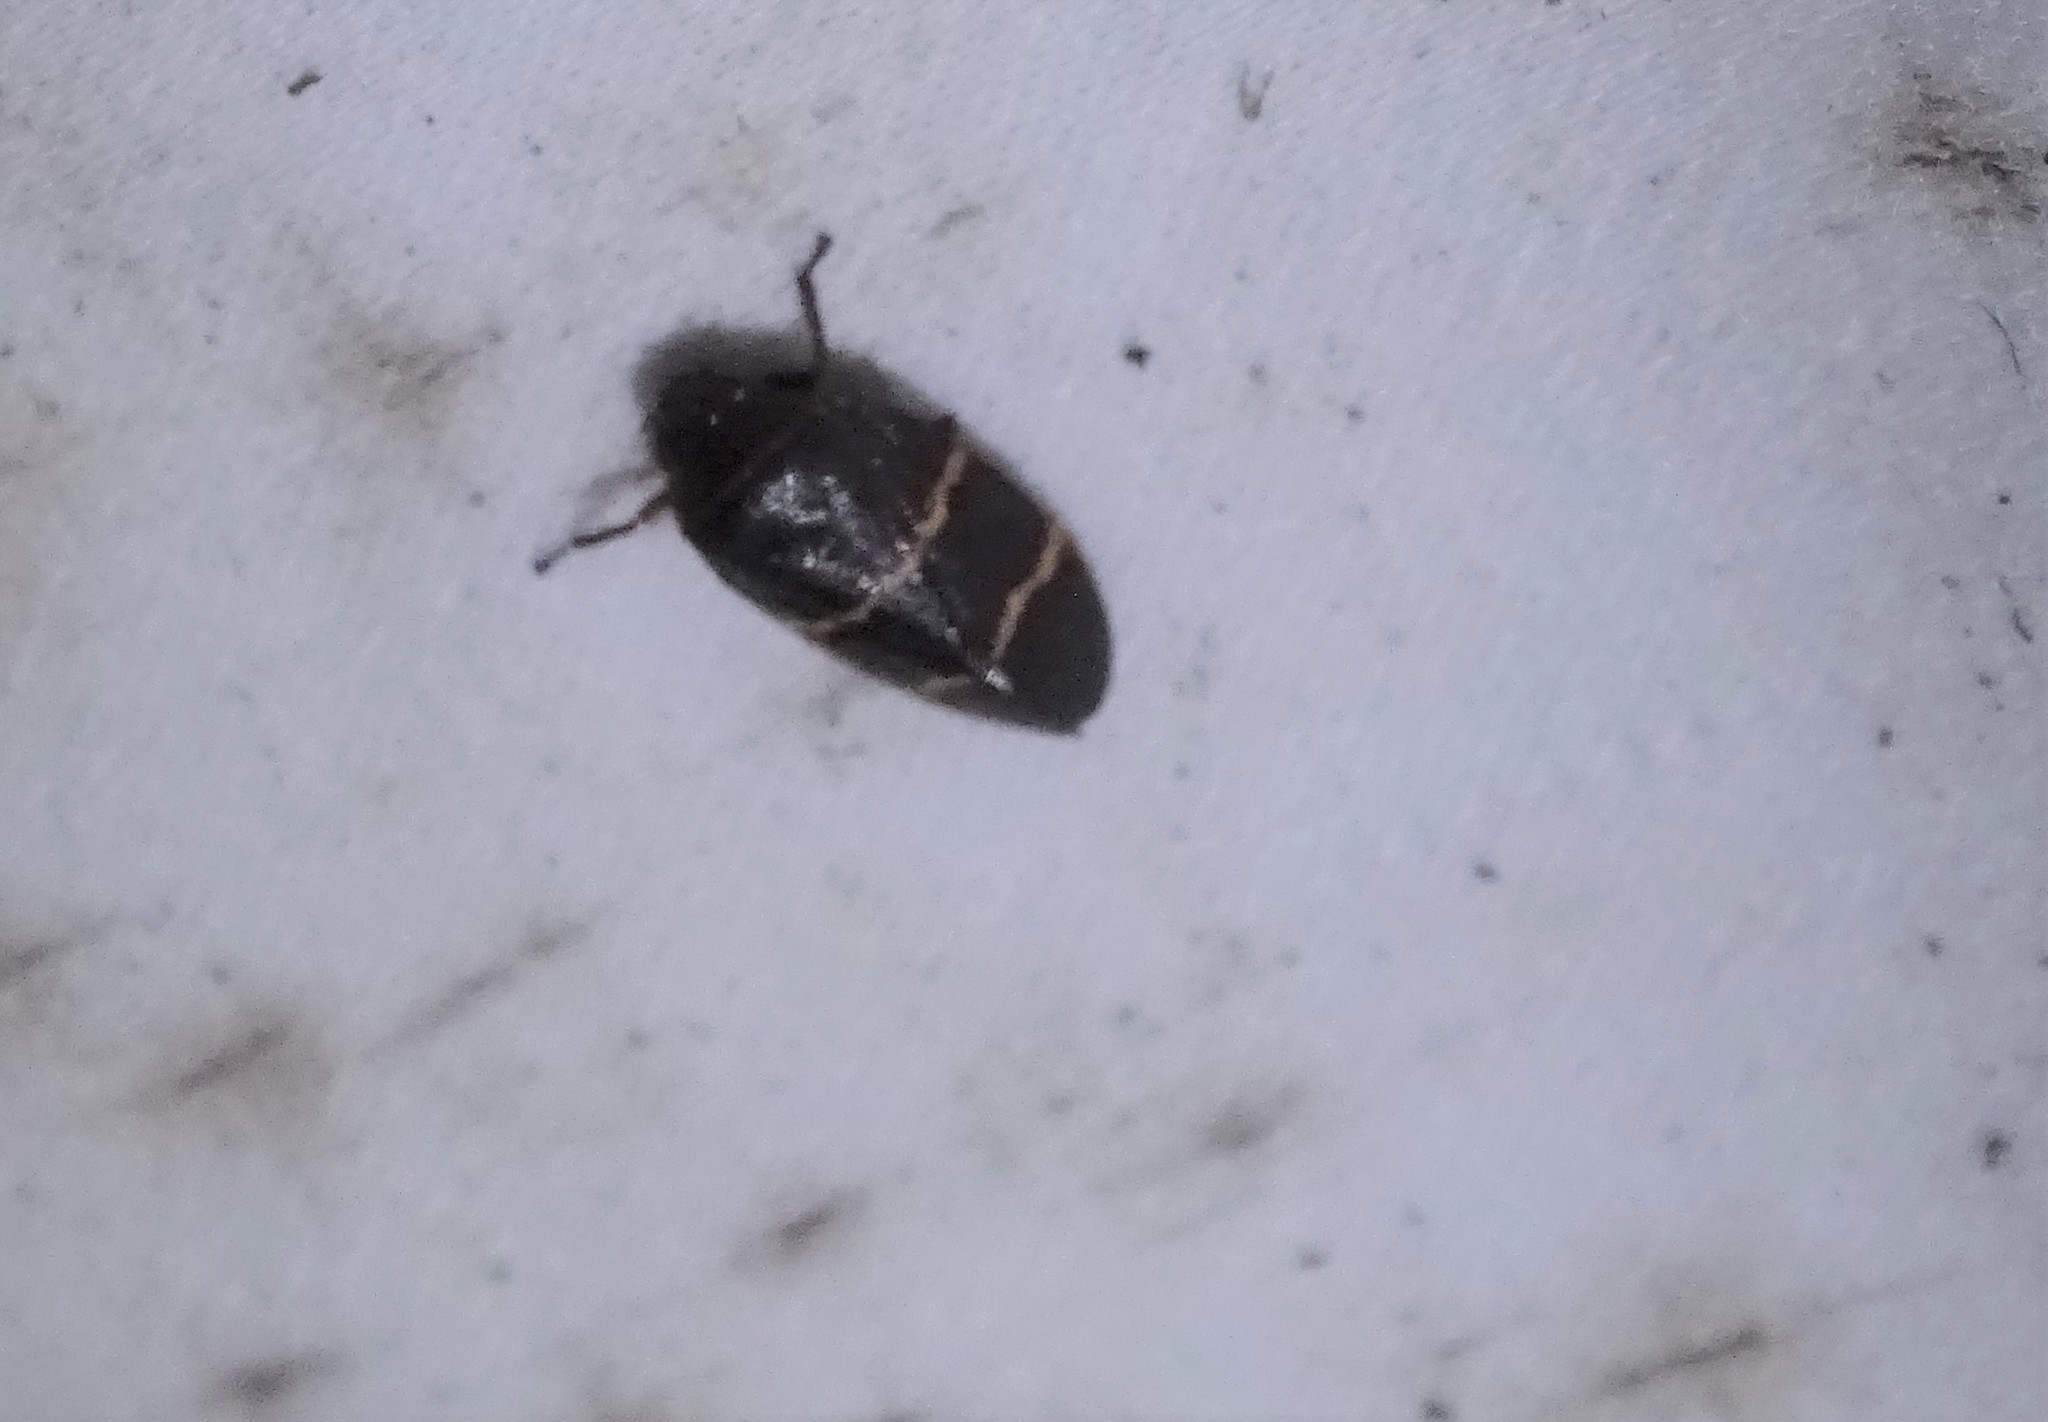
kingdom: Animalia
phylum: Arthropoda
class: Insecta
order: Hemiptera
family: Cercopidae
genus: Prosapia
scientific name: Prosapia bicincta
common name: Twolined spittlebug
